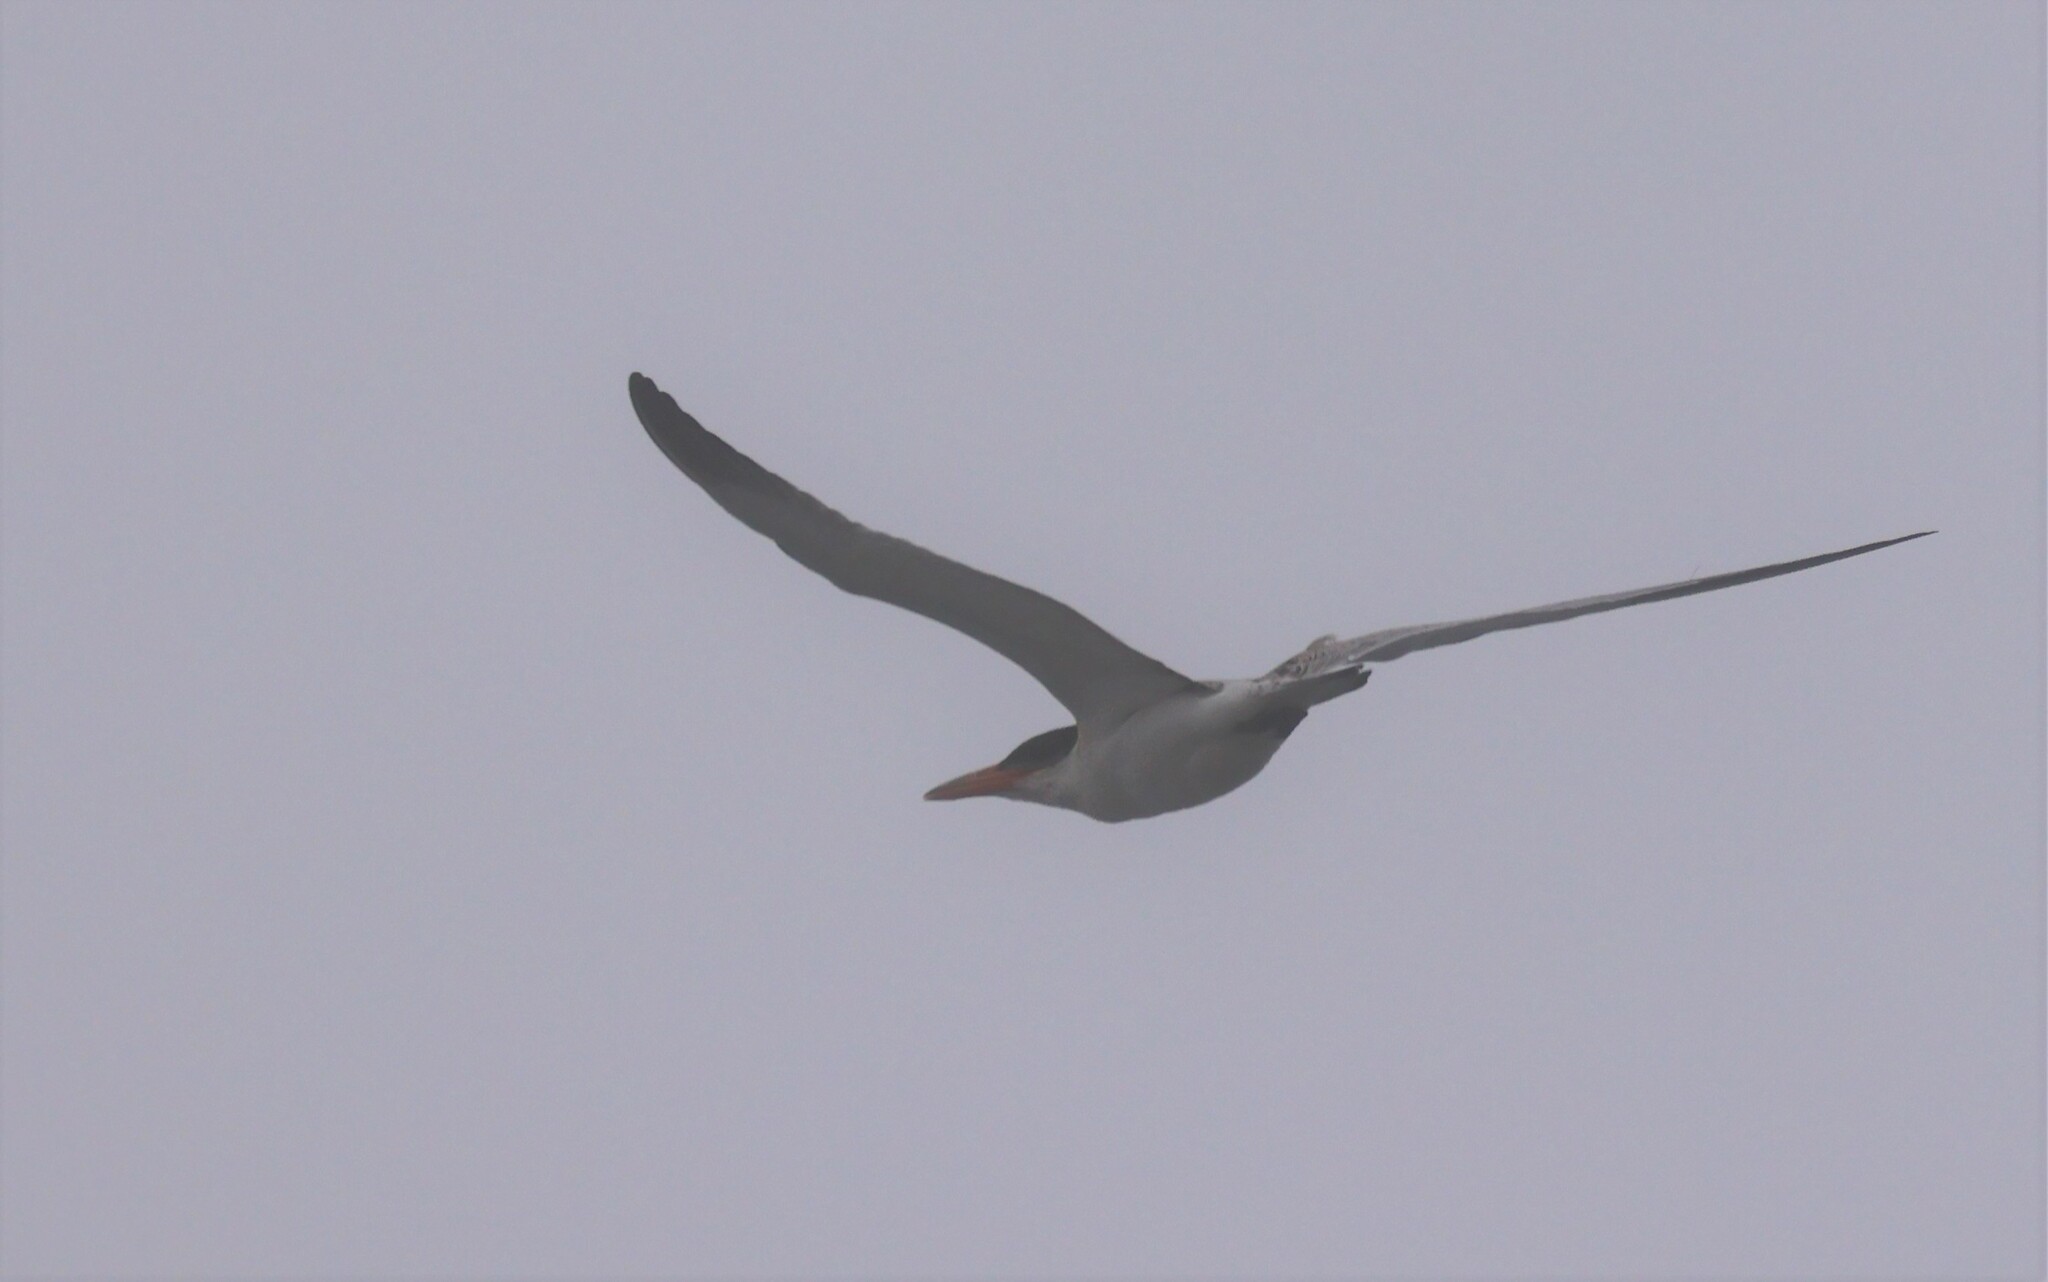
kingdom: Animalia
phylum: Chordata
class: Aves
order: Charadriiformes
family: Laridae
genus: Hydroprogne
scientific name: Hydroprogne caspia
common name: Caspian tern
